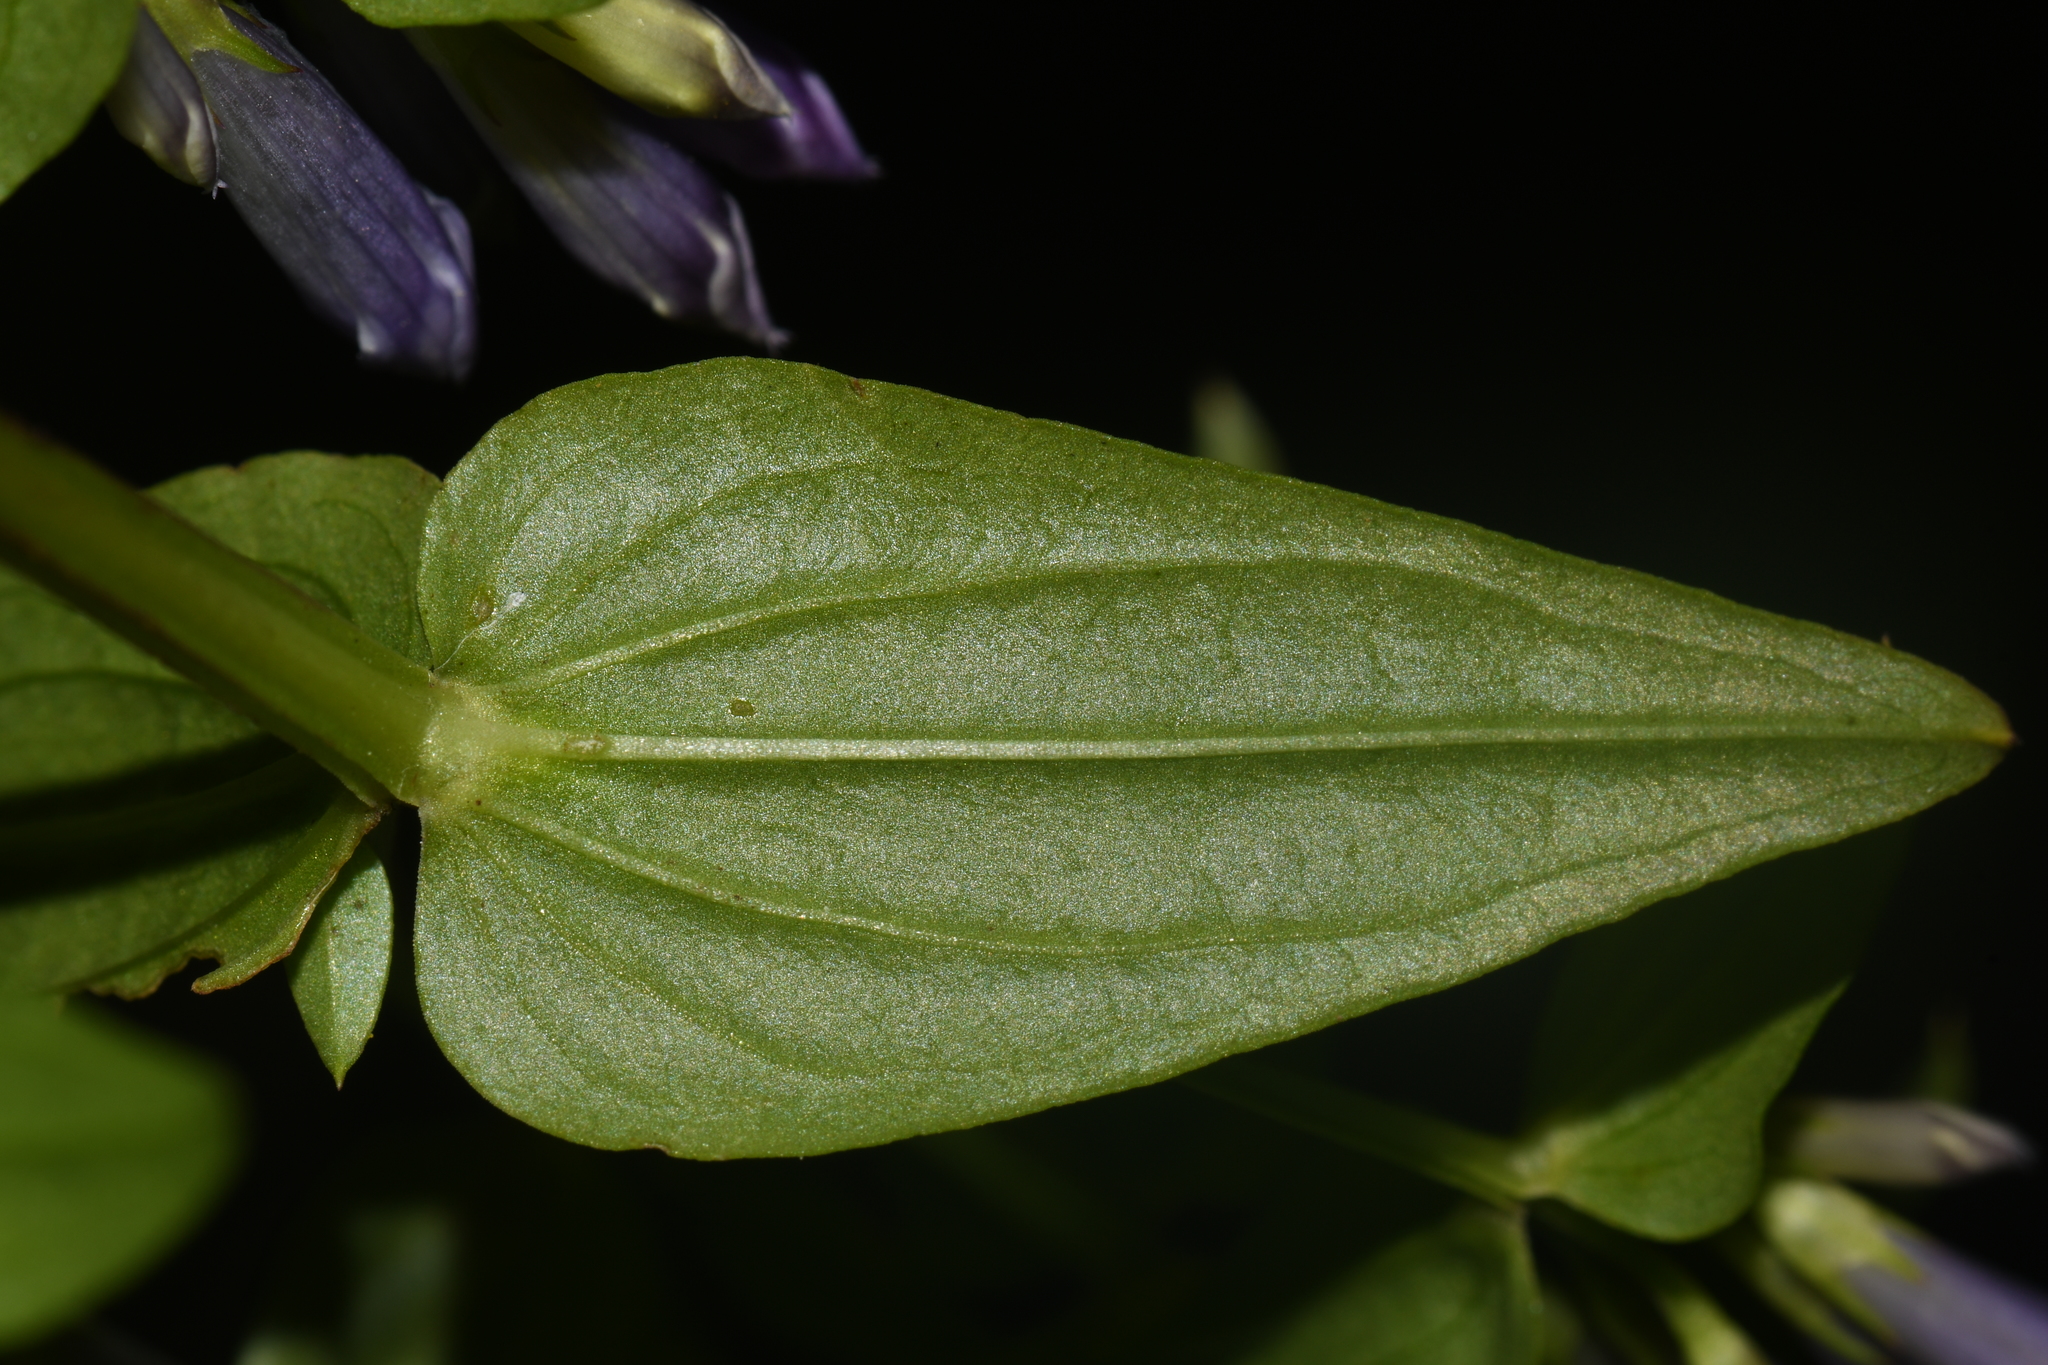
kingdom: Plantae
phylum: Tracheophyta
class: Magnoliopsida
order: Gentianales
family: Gentianaceae
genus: Gentianella
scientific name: Gentianella quinquefolia
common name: Agueweed
